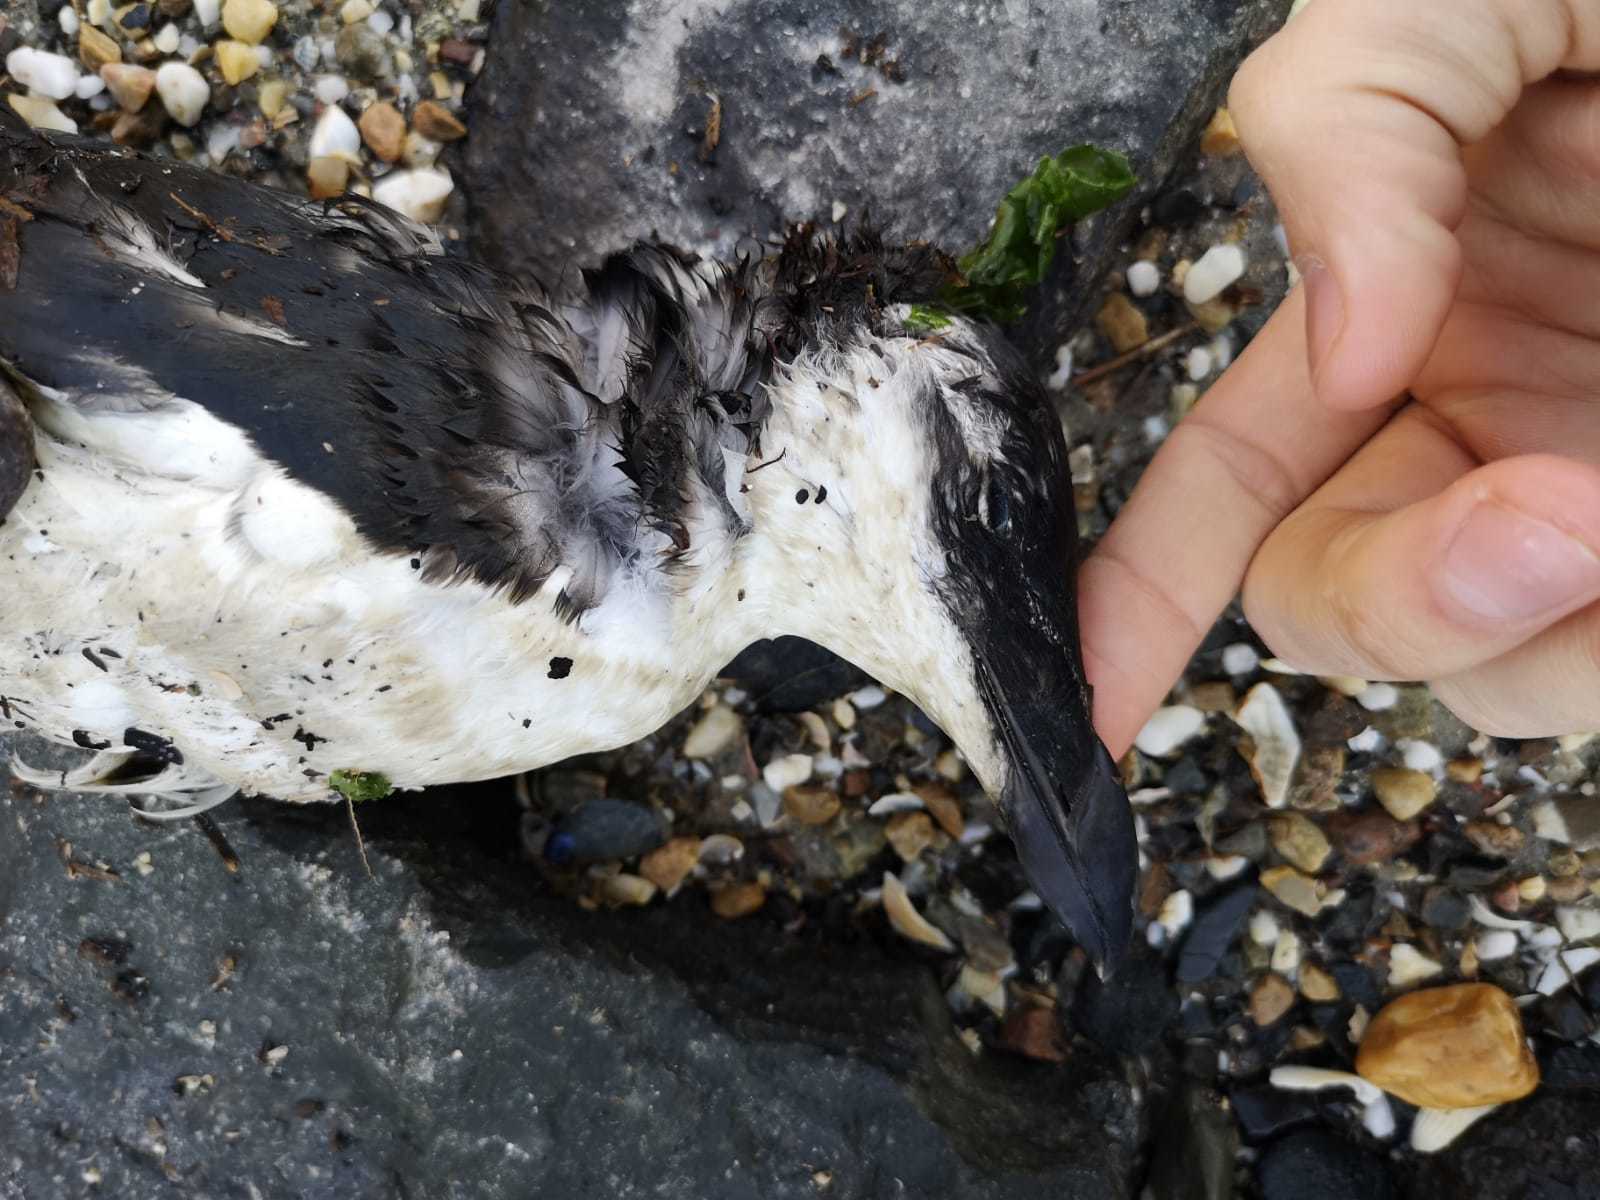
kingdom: Animalia
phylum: Chordata
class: Aves
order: Charadriiformes
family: Alcidae
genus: Alca
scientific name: Alca torda
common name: Razorbill
